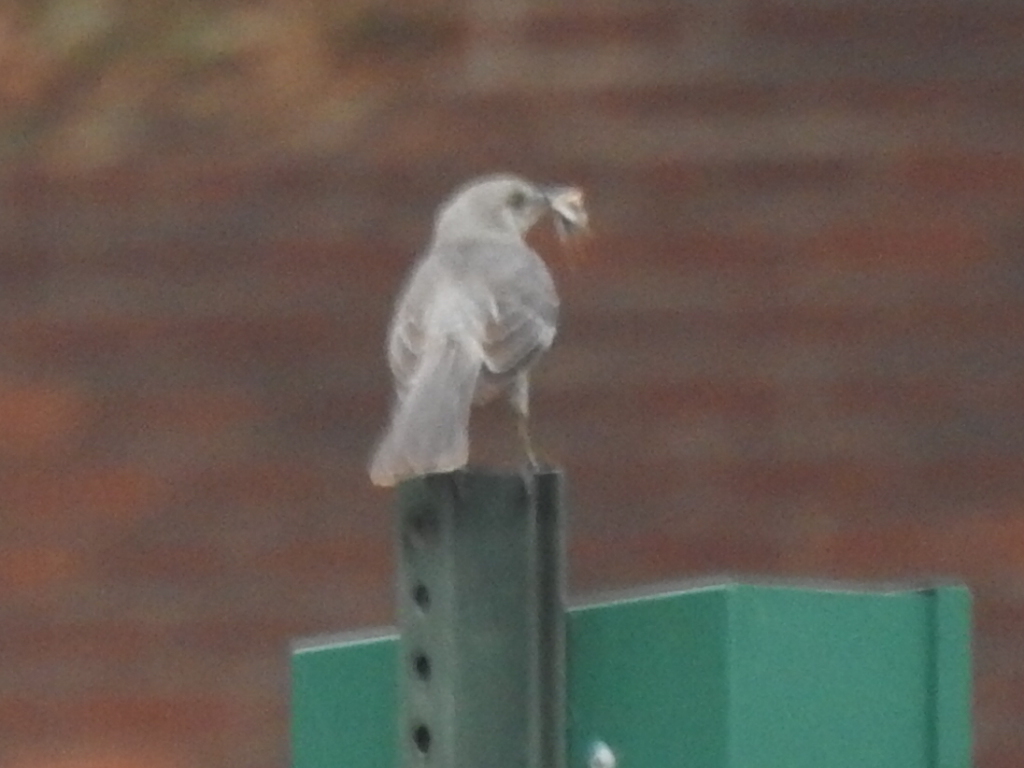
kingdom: Animalia
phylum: Chordata
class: Aves
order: Passeriformes
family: Mimidae
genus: Mimus
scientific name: Mimus polyglottos
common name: Northern mockingbird
